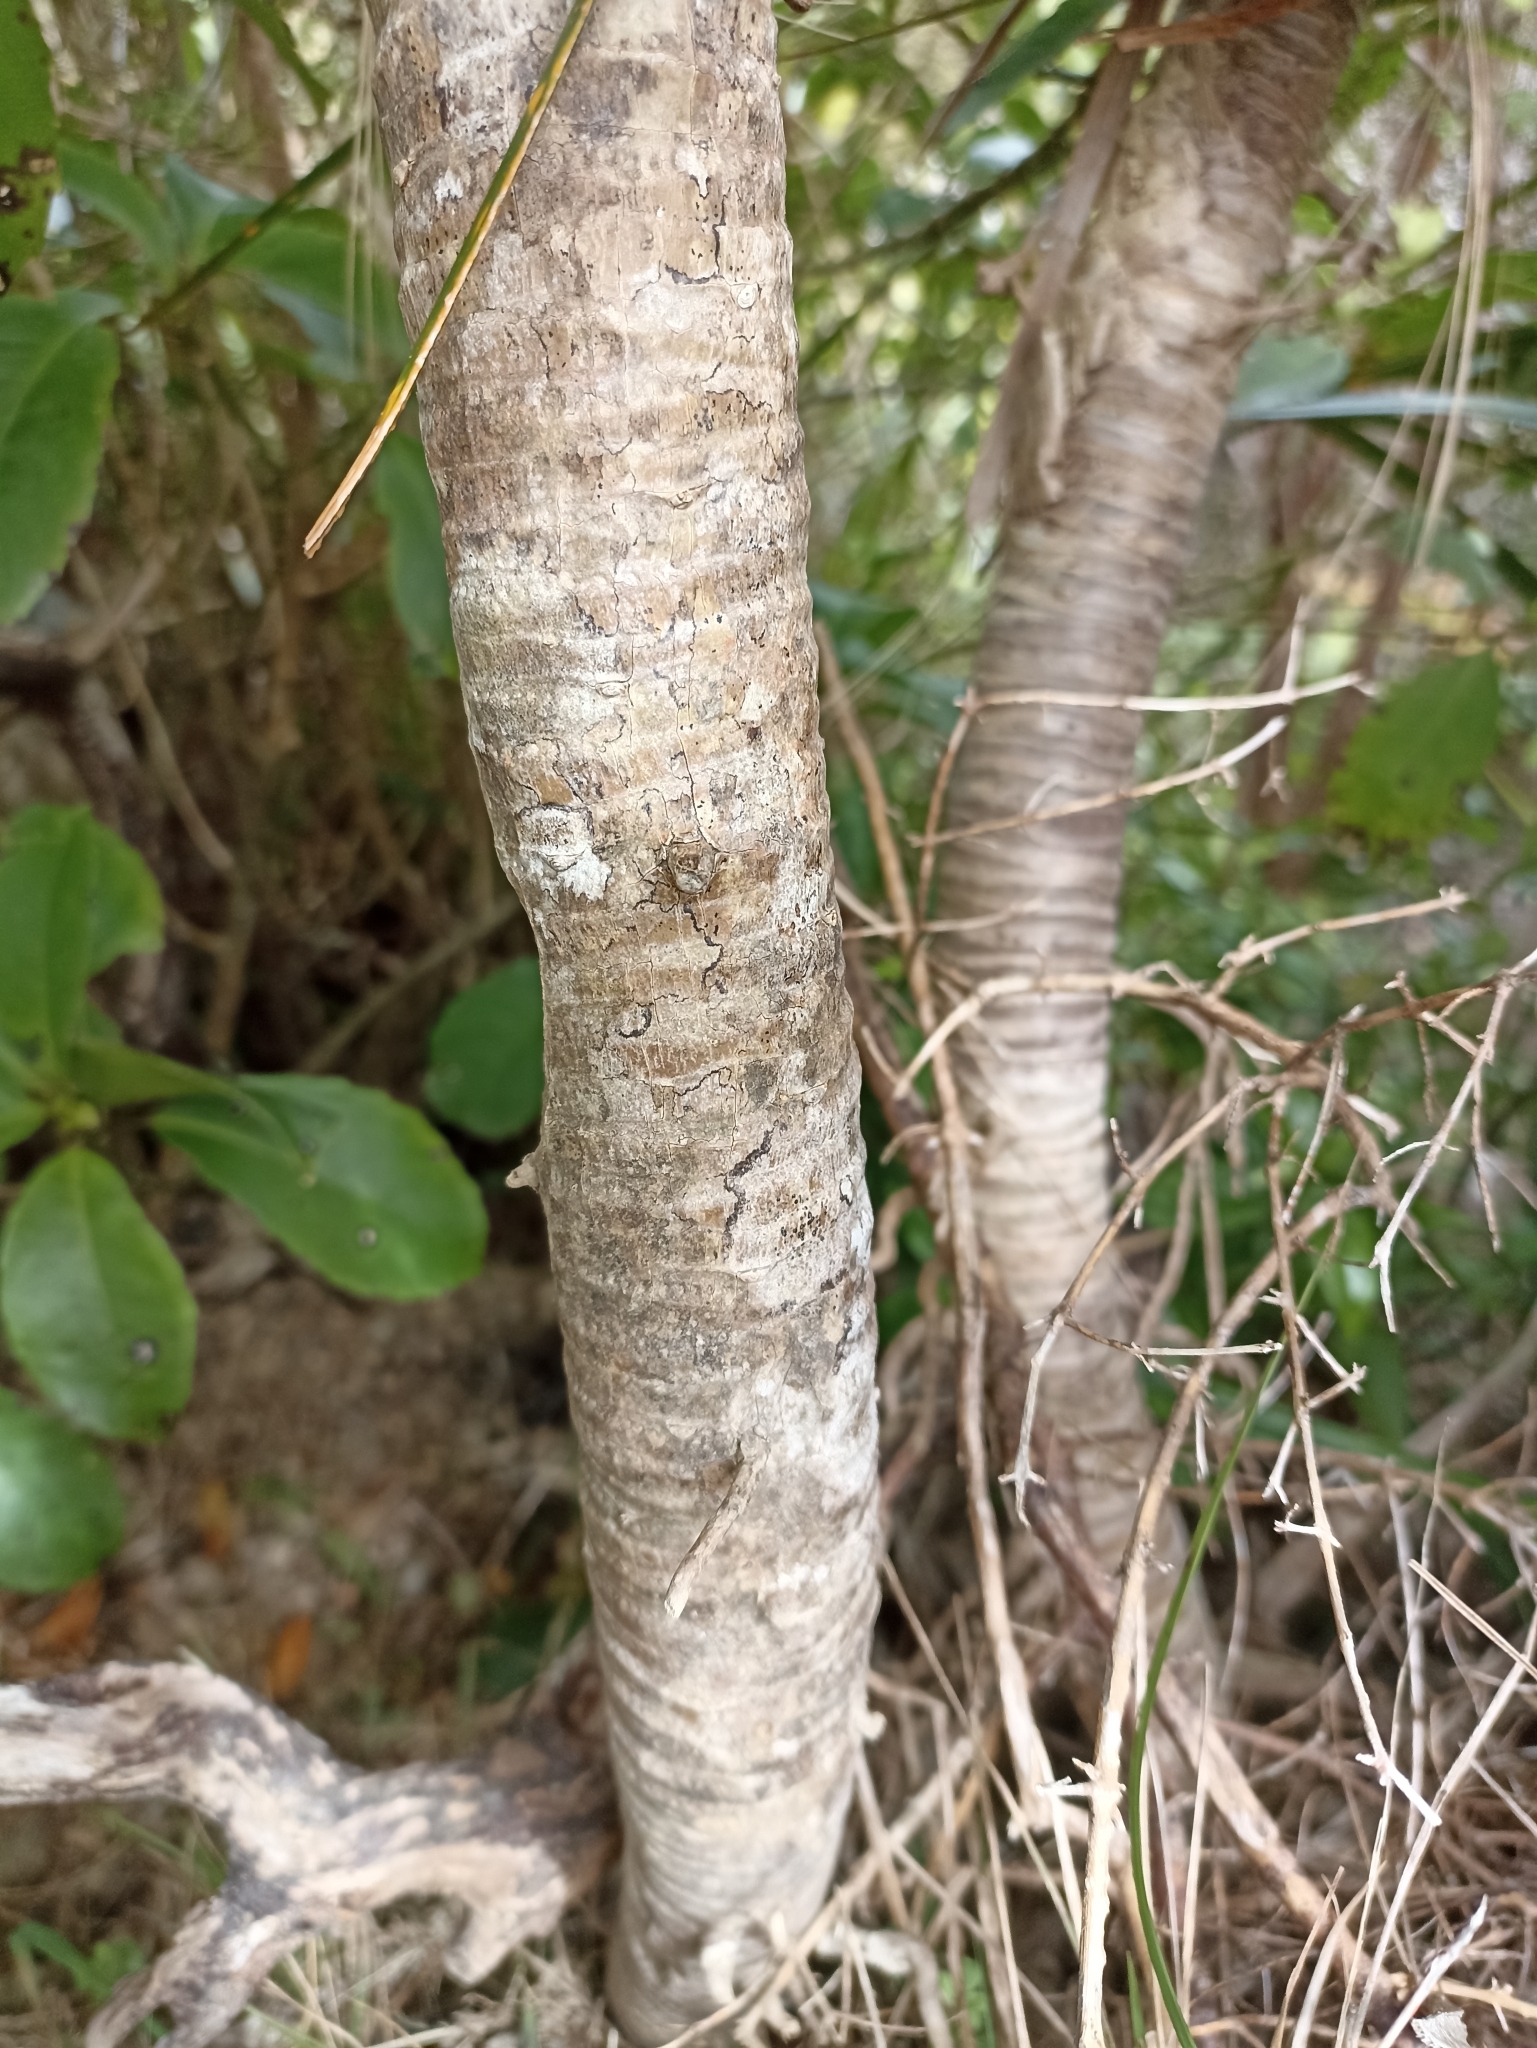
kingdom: Plantae
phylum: Tracheophyta
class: Liliopsida
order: Pandanales
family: Pandanaceae
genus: Freycinetia
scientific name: Freycinetia banksii
